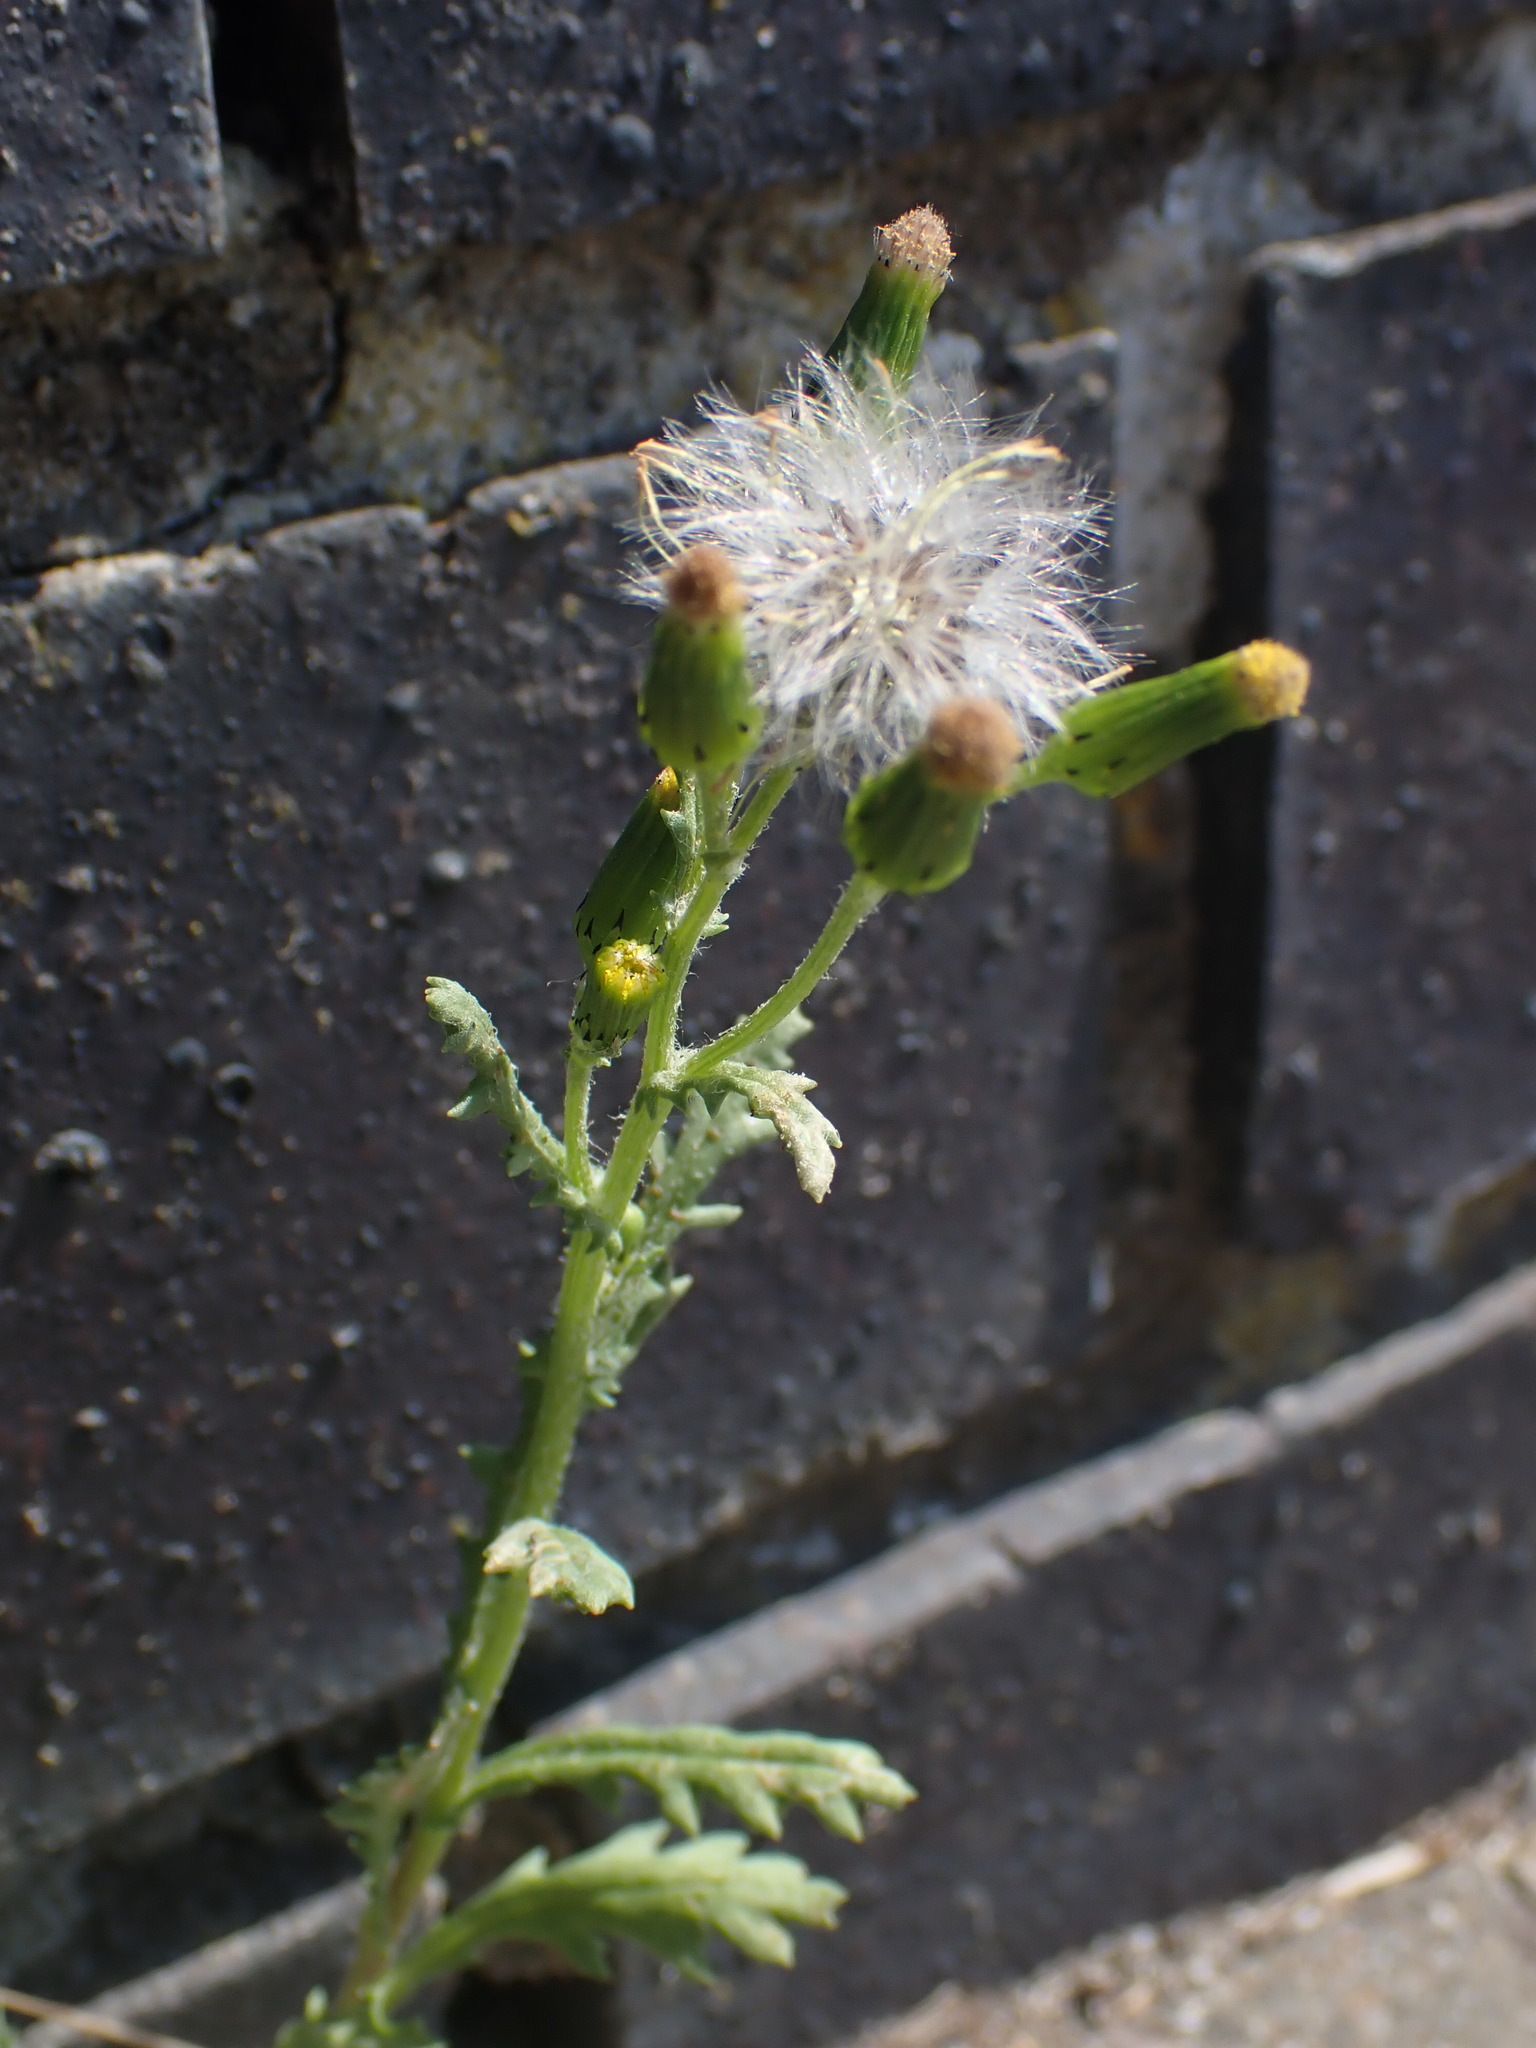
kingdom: Plantae
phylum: Tracheophyta
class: Magnoliopsida
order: Asterales
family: Asteraceae
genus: Senecio
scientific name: Senecio vulgaris
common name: Old-man-in-the-spring
